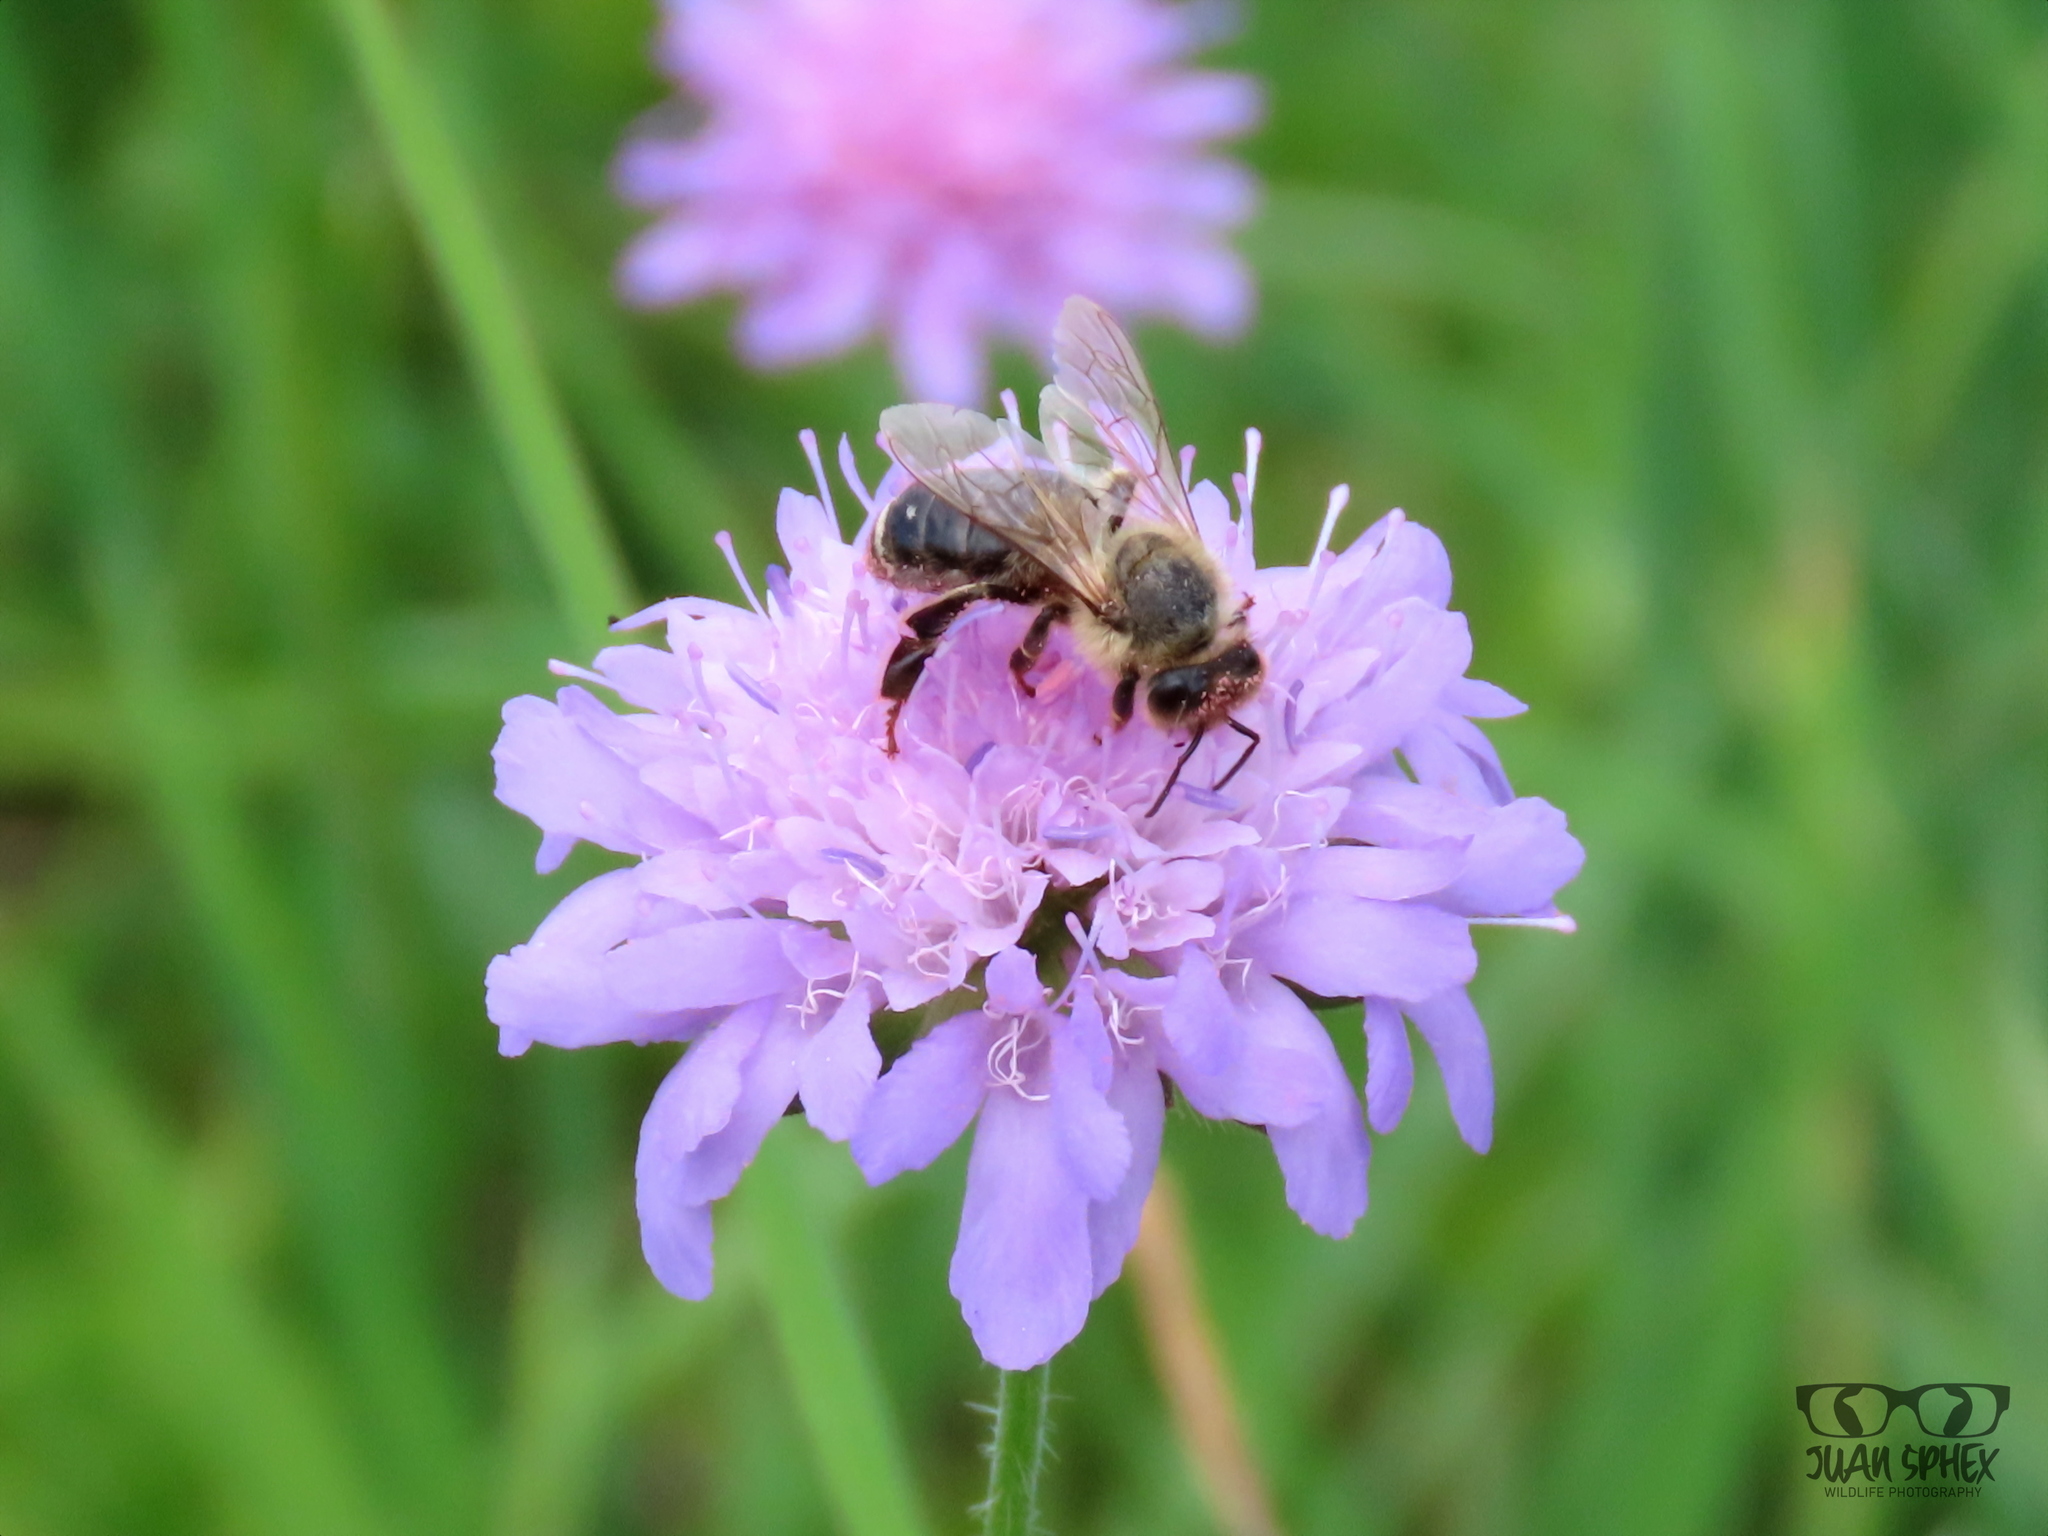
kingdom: Animalia
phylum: Arthropoda
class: Insecta
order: Hymenoptera
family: Apidae
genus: Apis
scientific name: Apis mellifera
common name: Honey bee
